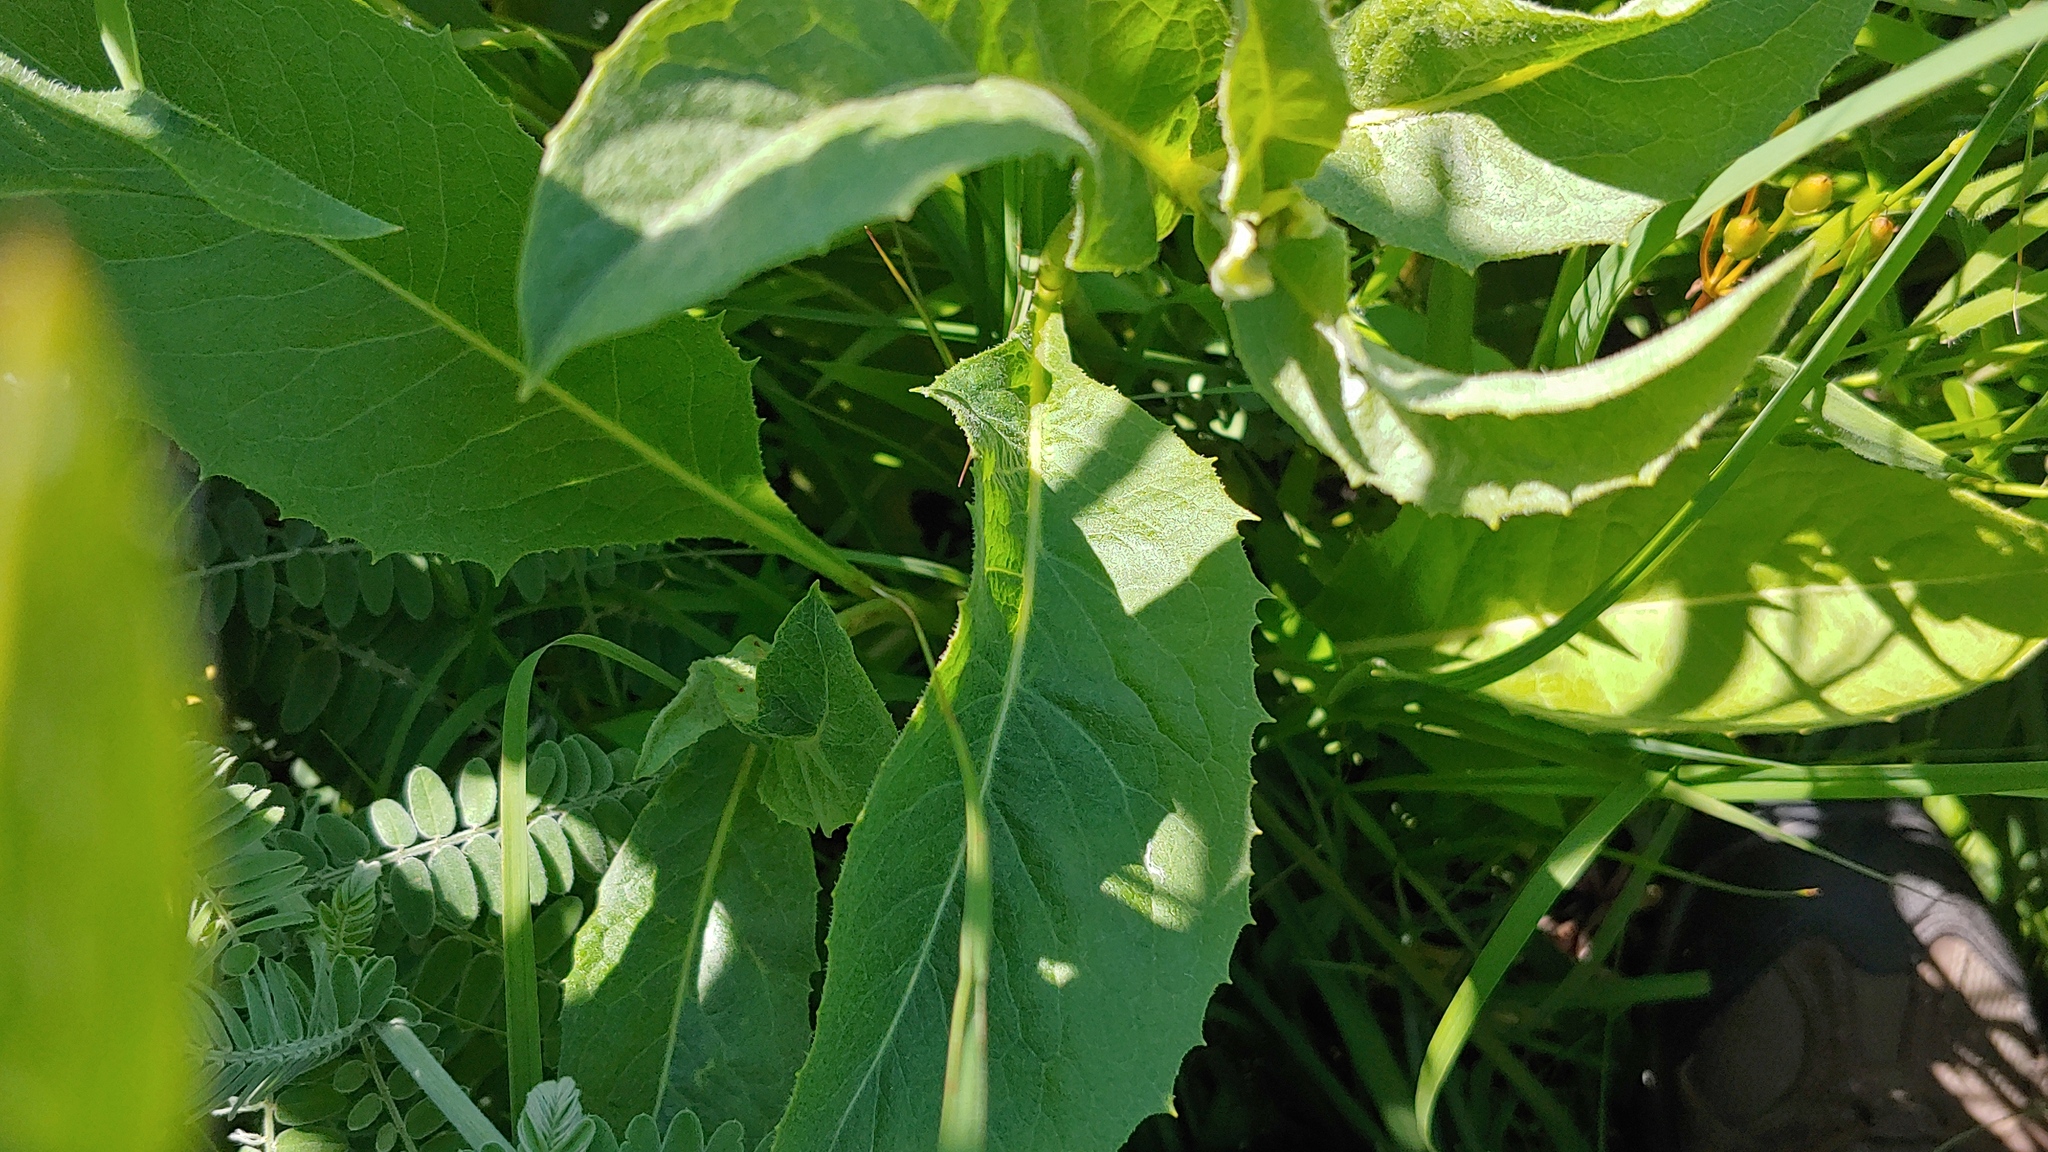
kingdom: Plantae
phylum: Tracheophyta
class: Magnoliopsida
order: Asterales
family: Asteraceae
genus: Parthenium
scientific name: Parthenium integrifolium
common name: American feverfew
